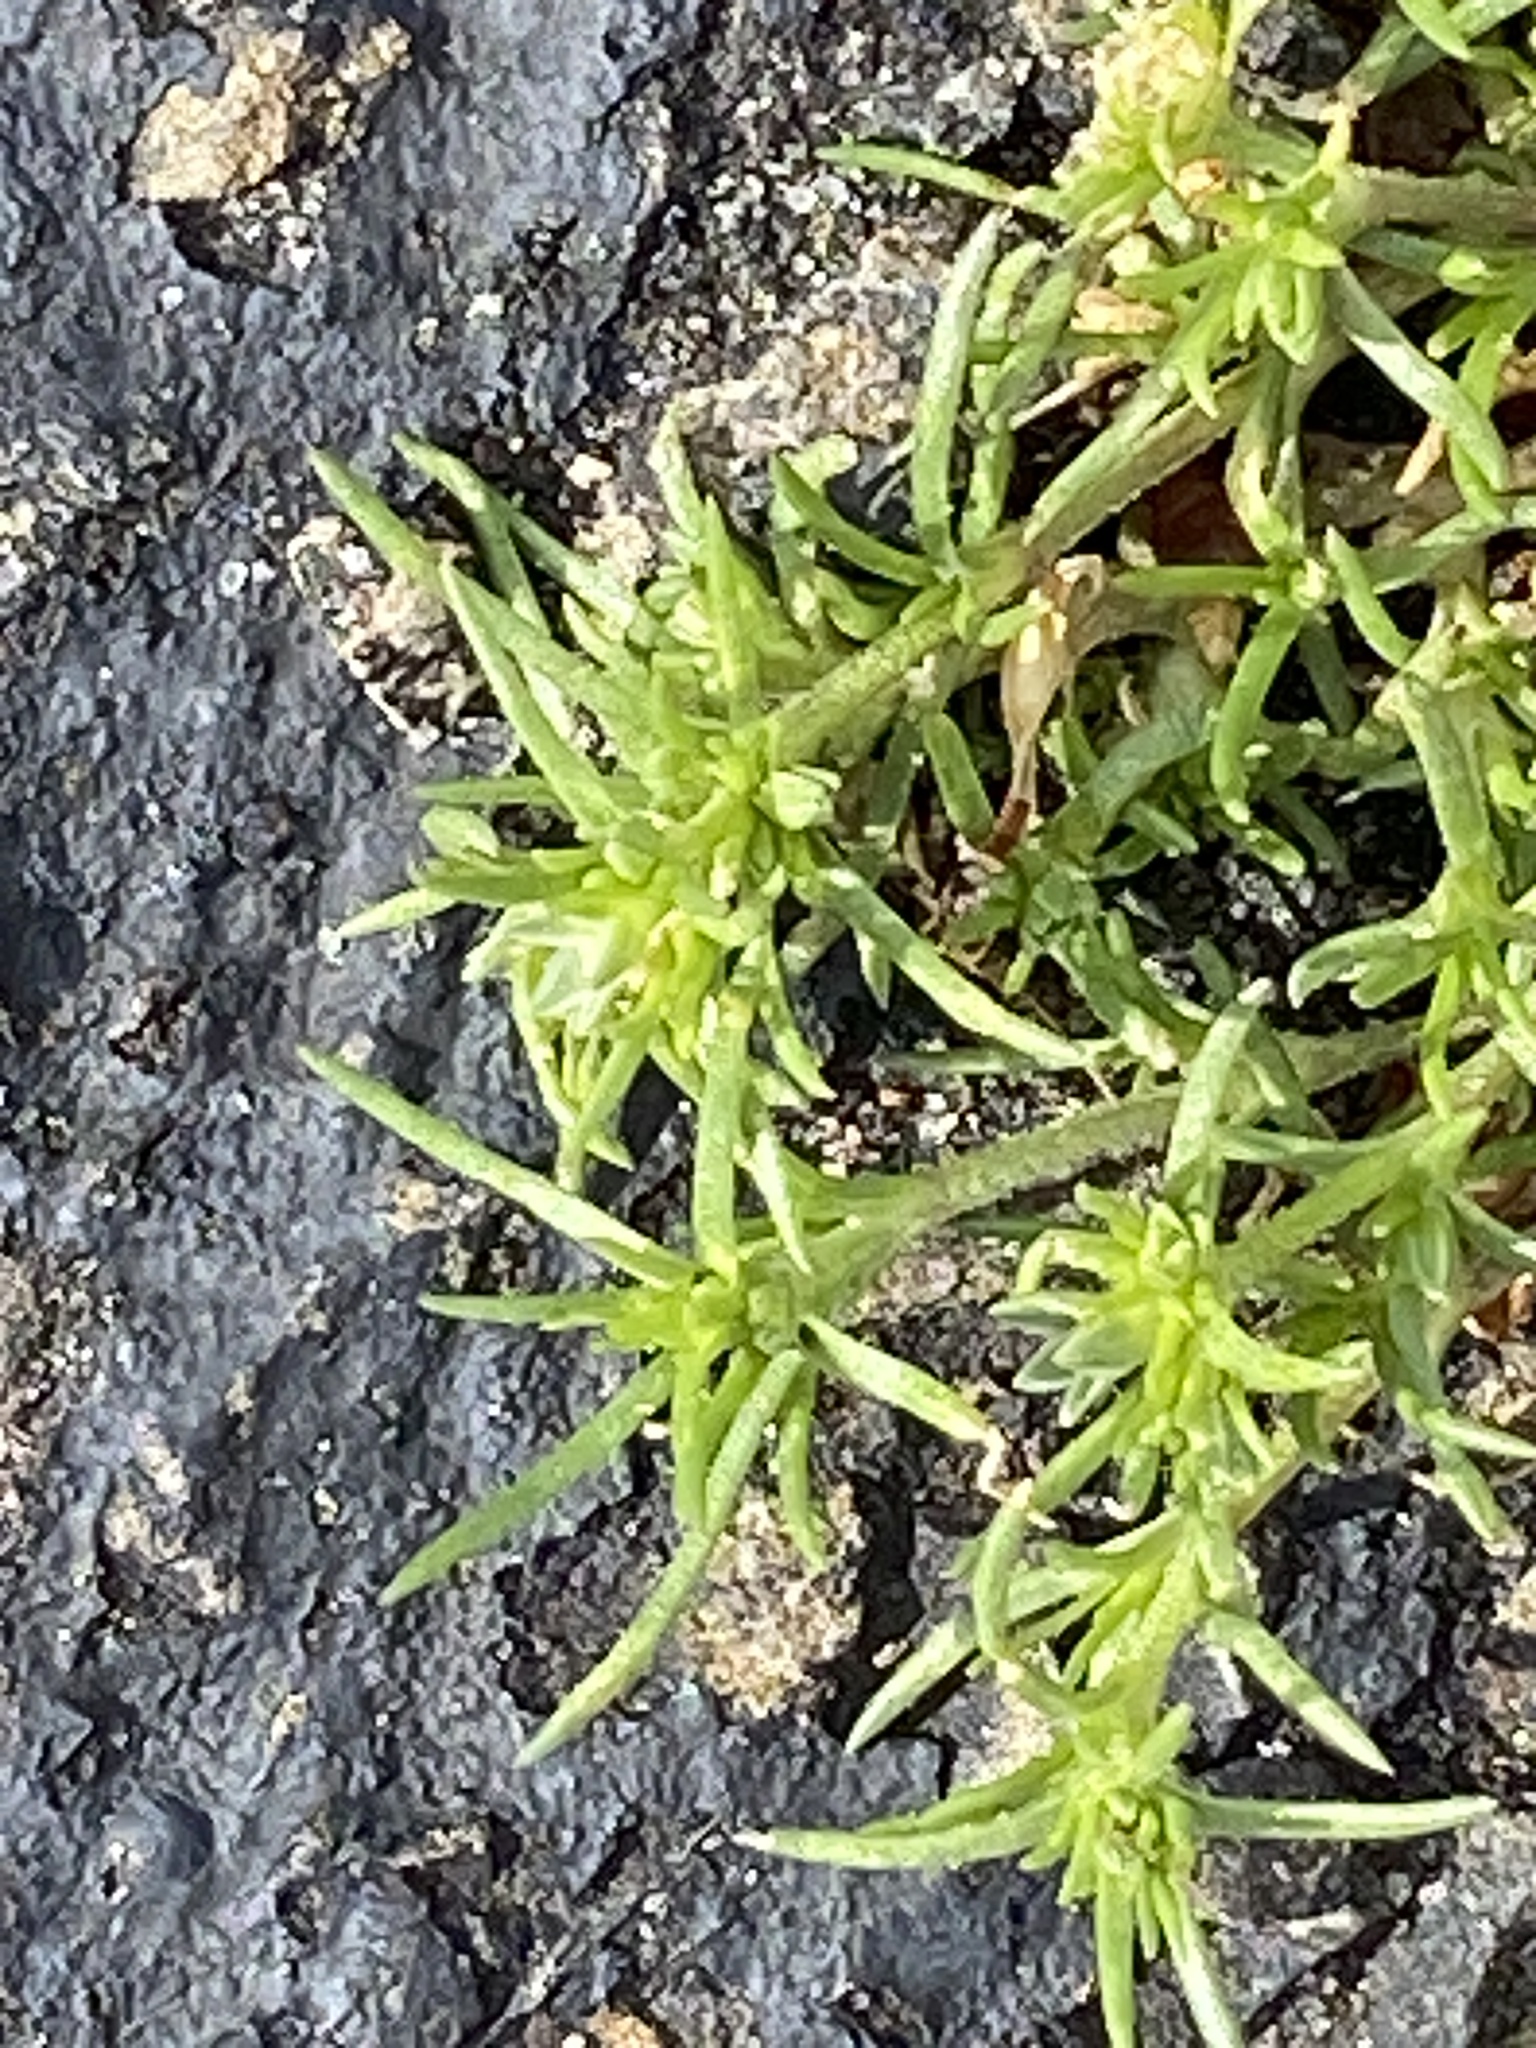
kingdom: Plantae
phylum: Tracheophyta
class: Magnoliopsida
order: Caryophyllales
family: Caryophyllaceae
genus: Scleranthus
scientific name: Scleranthus annuus
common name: Annual knawel
